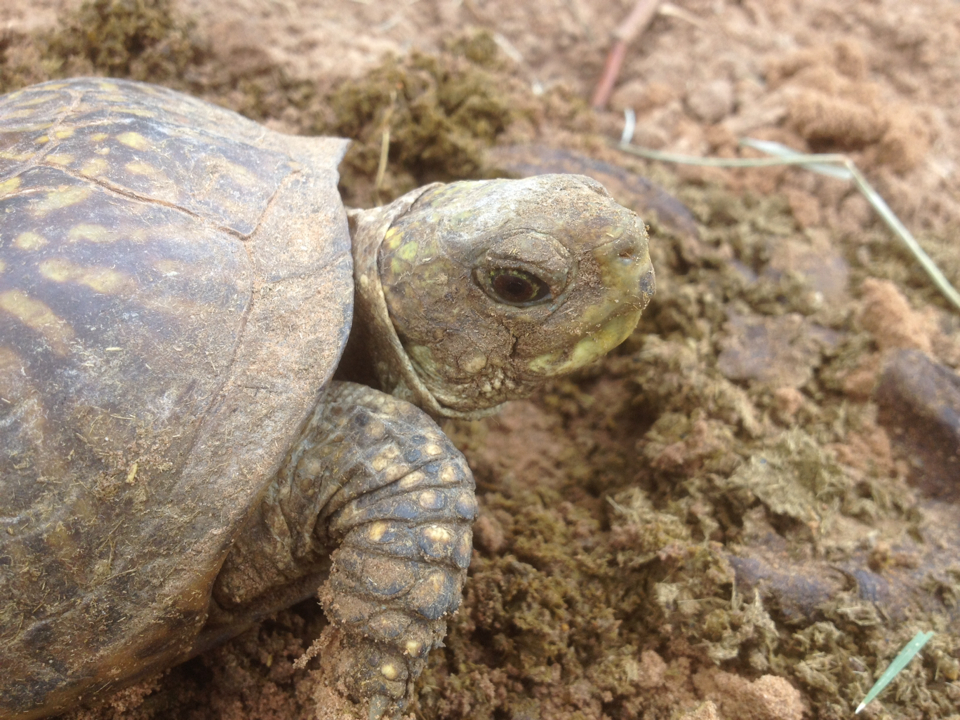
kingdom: Animalia
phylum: Chordata
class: Testudines
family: Emydidae
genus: Terrapene
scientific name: Terrapene ornata
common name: Western box turtle
